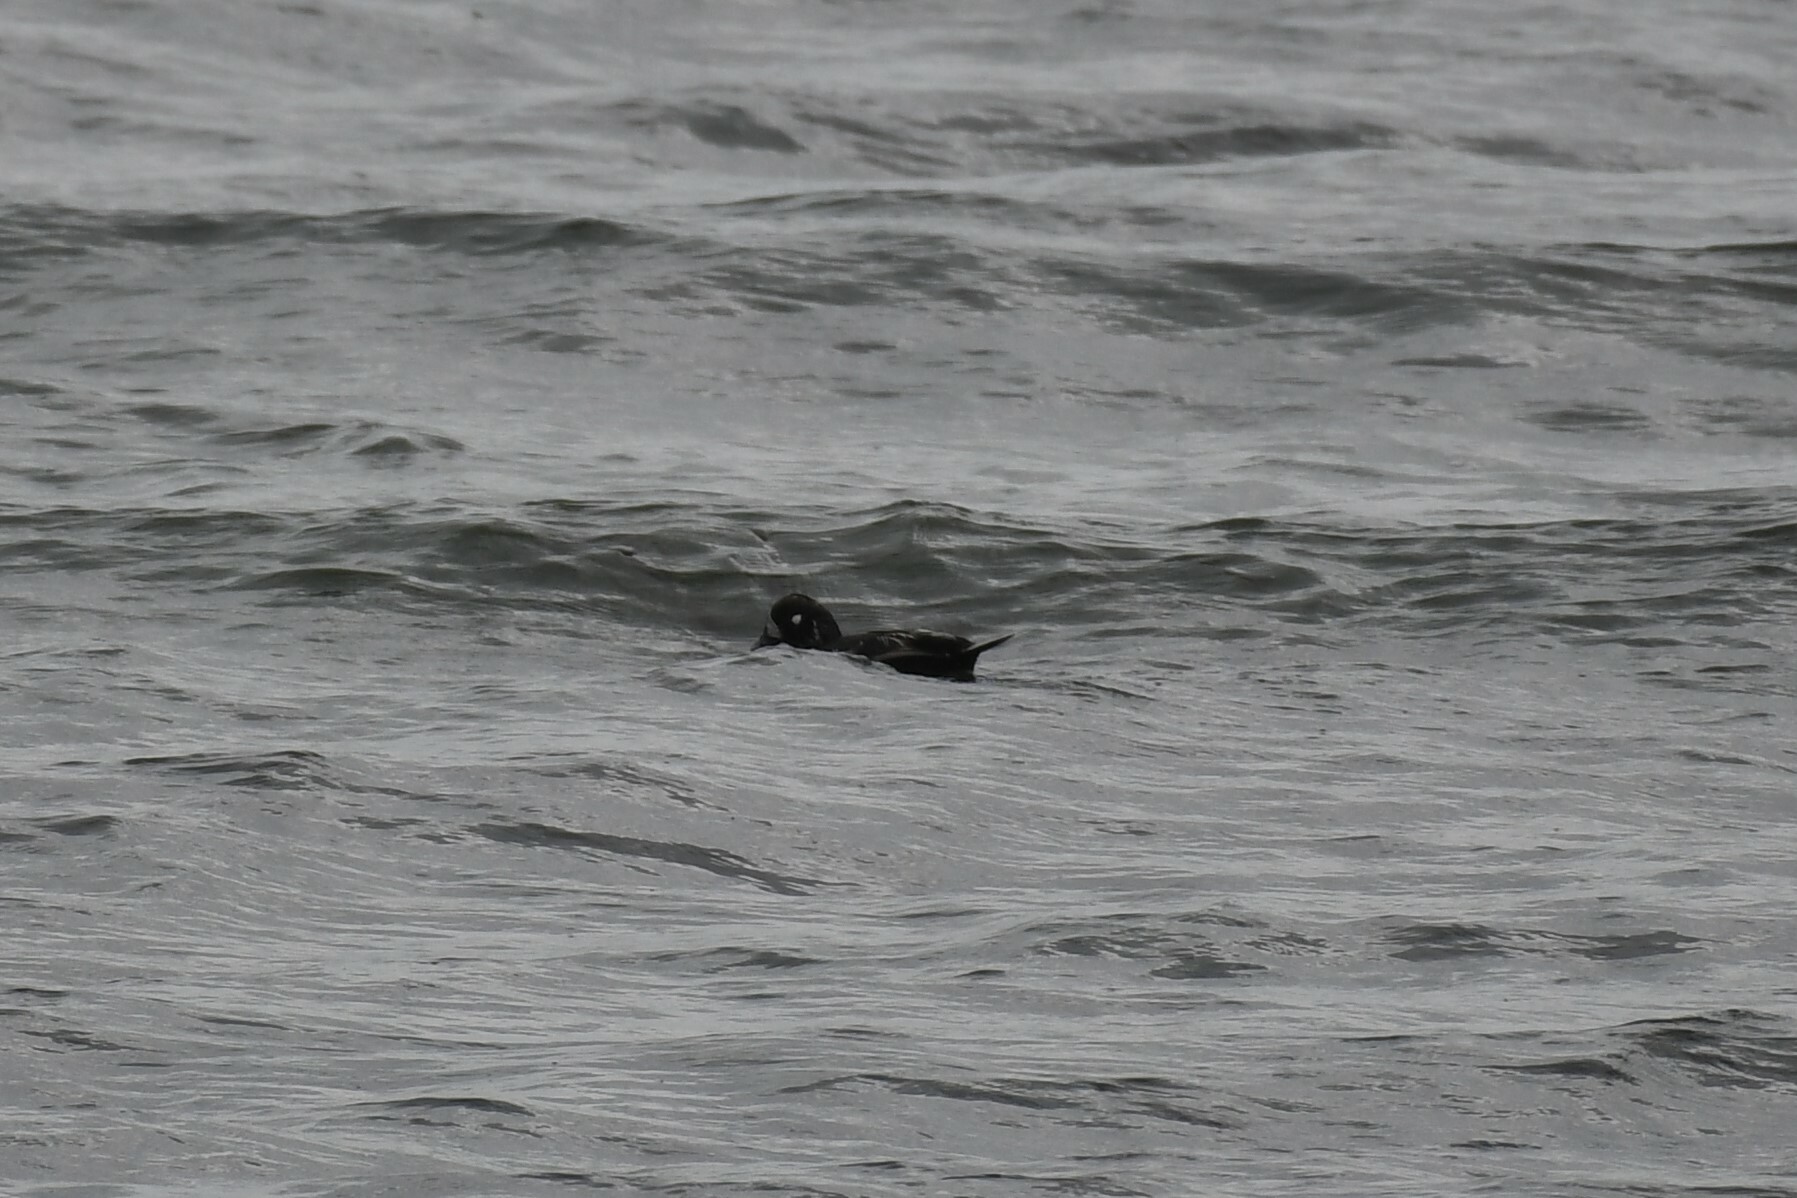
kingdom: Animalia
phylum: Chordata
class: Aves
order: Anseriformes
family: Anatidae
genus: Histrionicus
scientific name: Histrionicus histrionicus
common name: Harlequin duck
